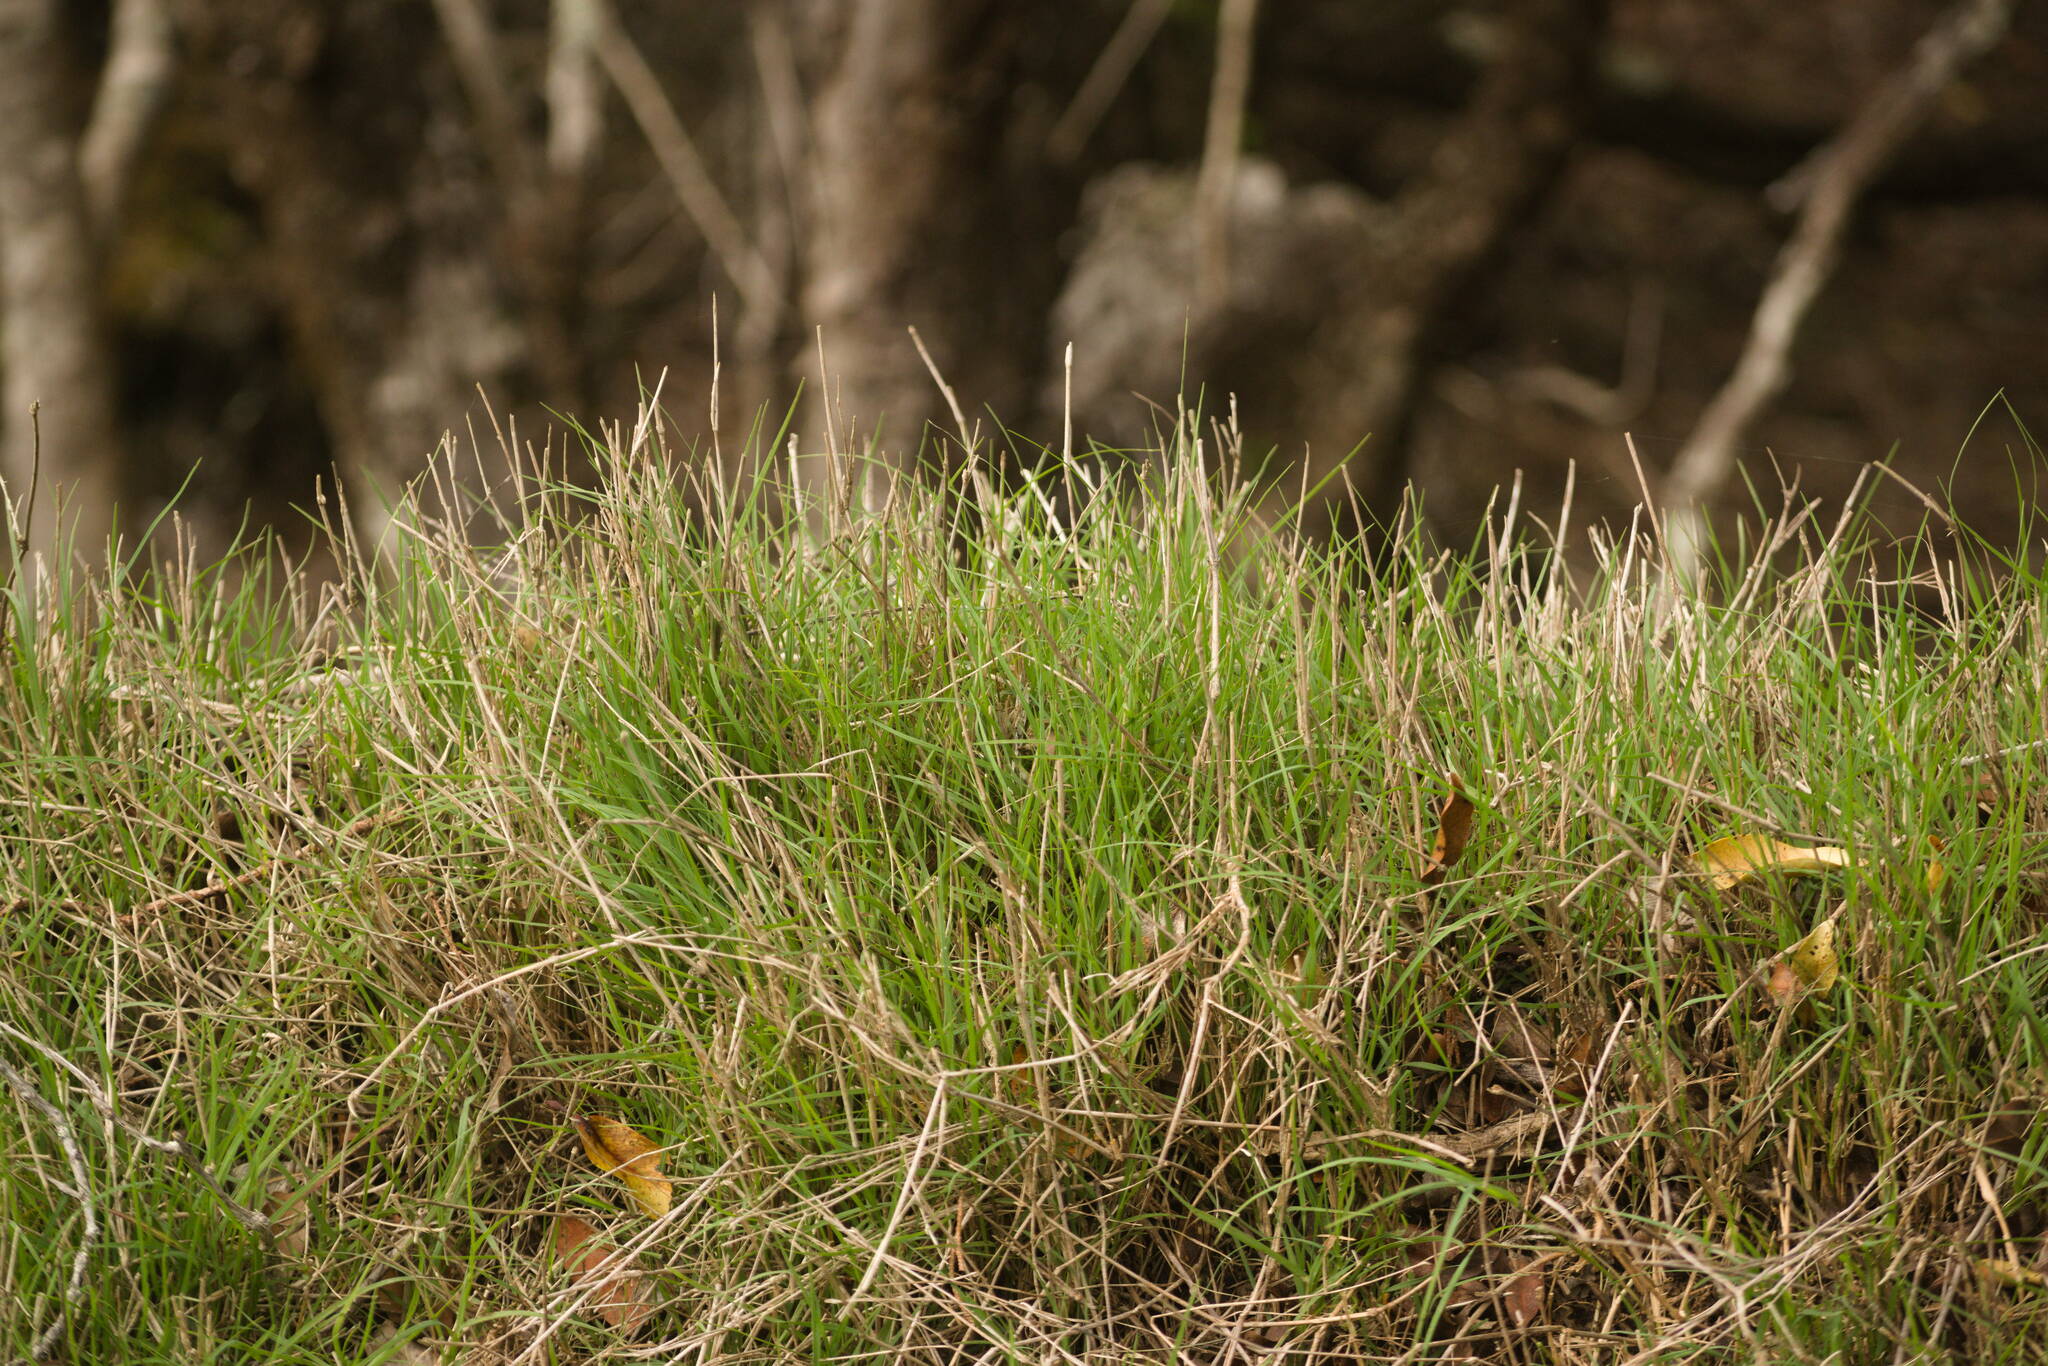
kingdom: Plantae
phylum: Tracheophyta
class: Liliopsida
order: Poales
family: Poaceae
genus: Cynodon
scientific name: Cynodon dactylon
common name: Bermuda grass
